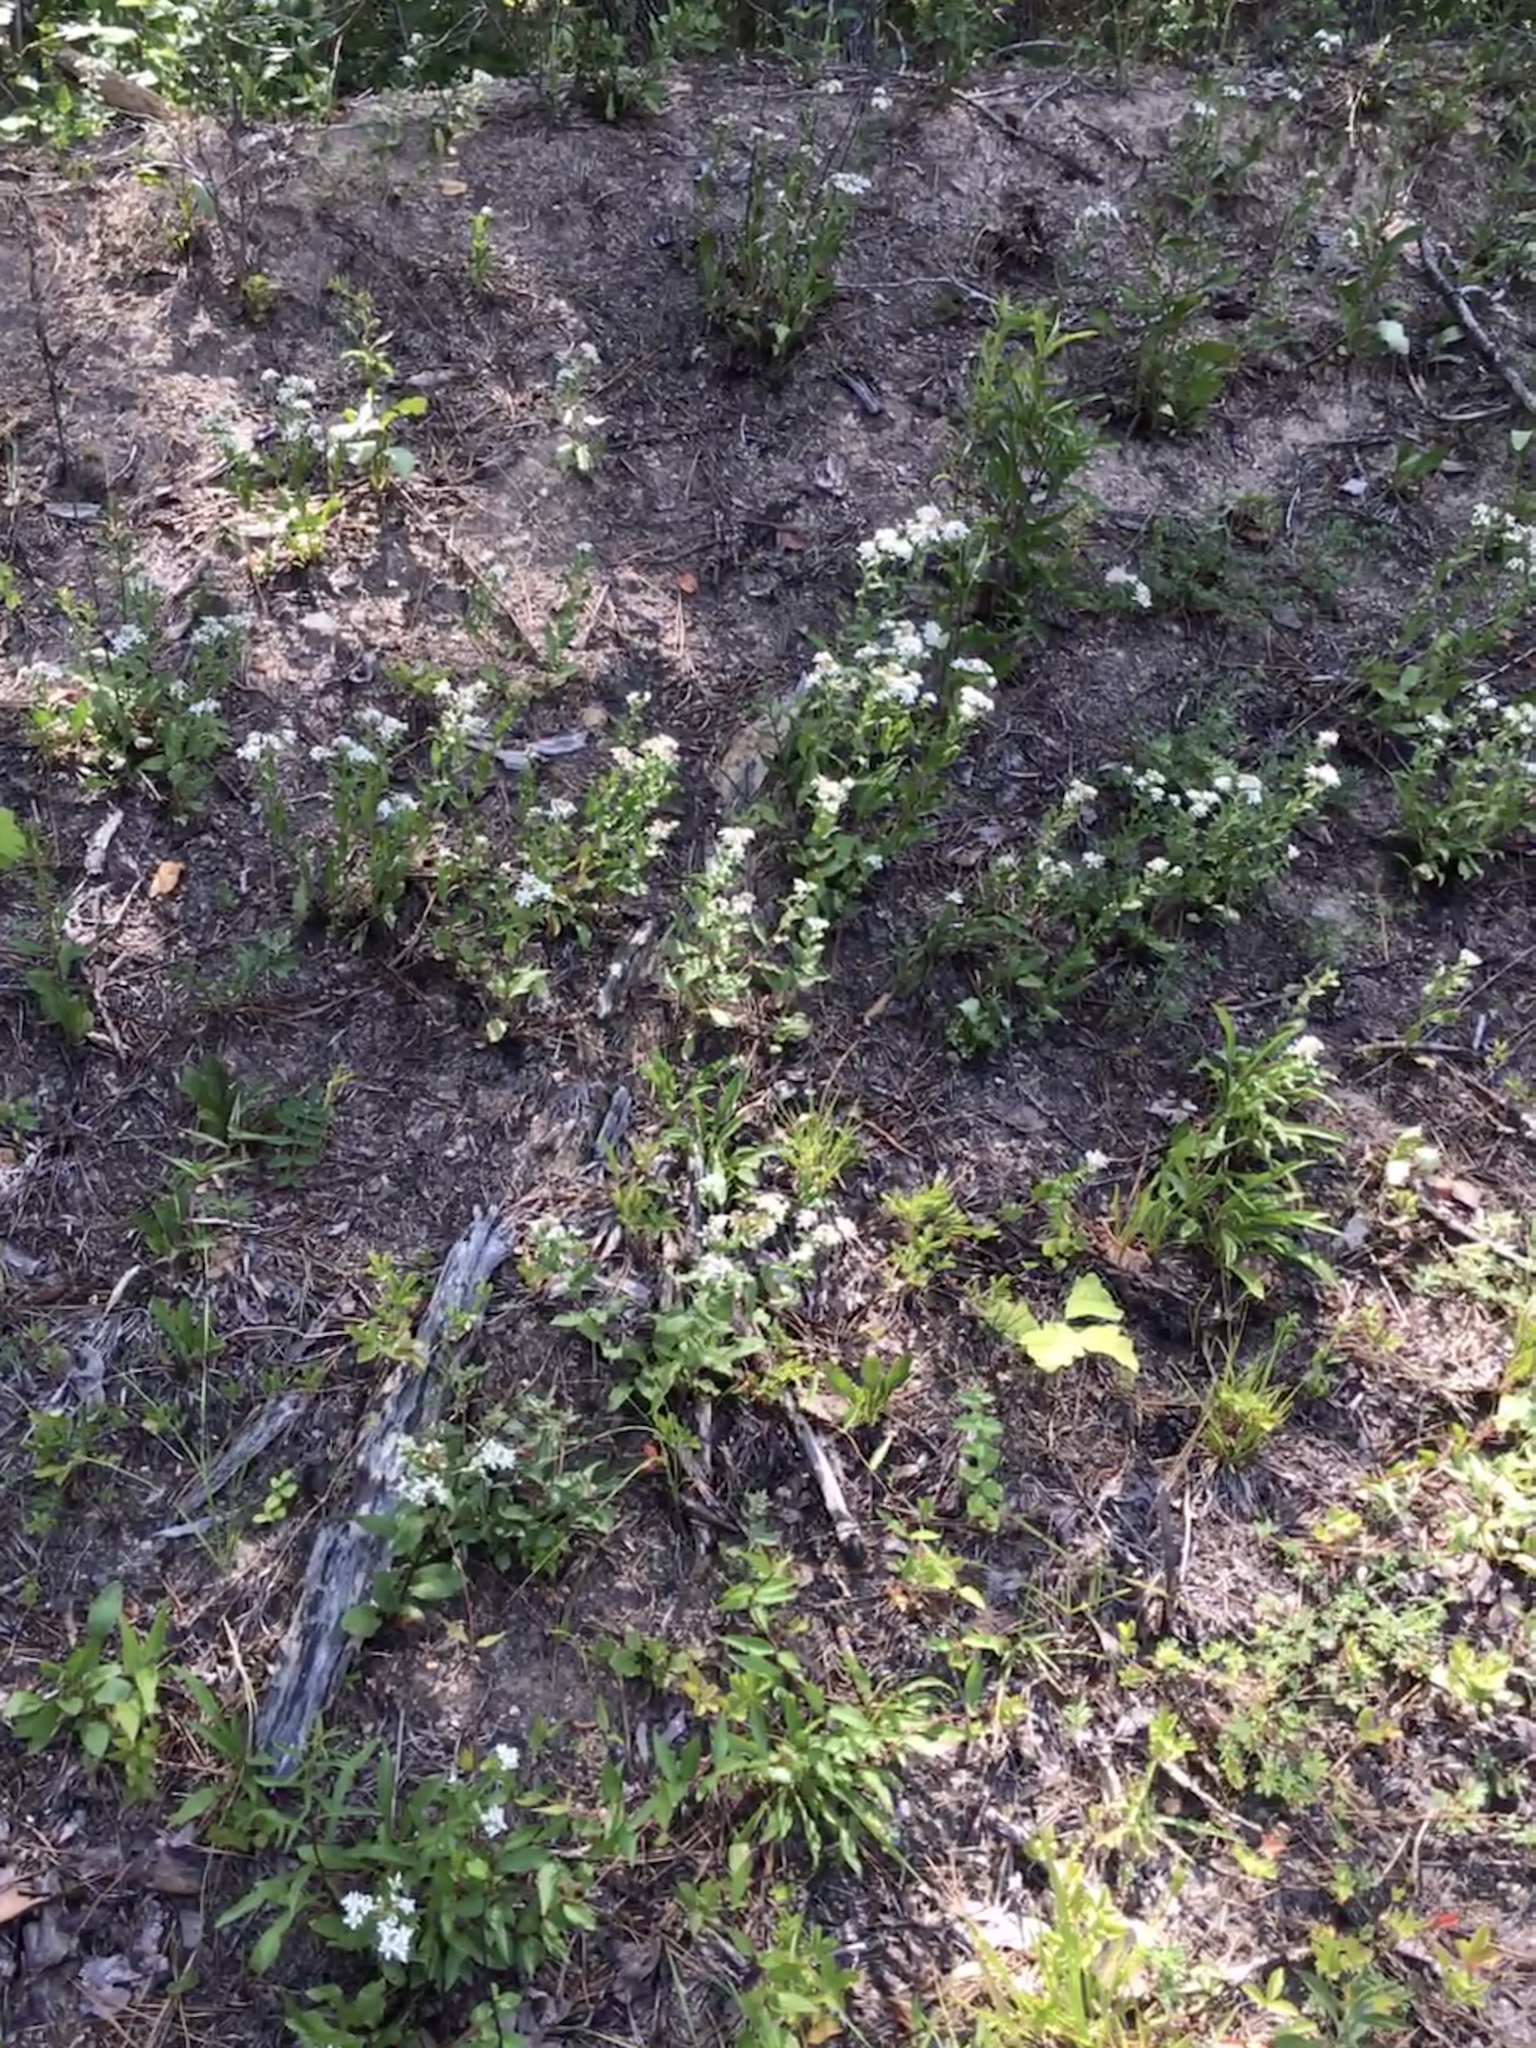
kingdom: Plantae
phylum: Tracheophyta
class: Magnoliopsida
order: Asterales
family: Asteraceae
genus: Sericocarpus
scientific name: Sericocarpus asteroides
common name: Toothed white-top aster
